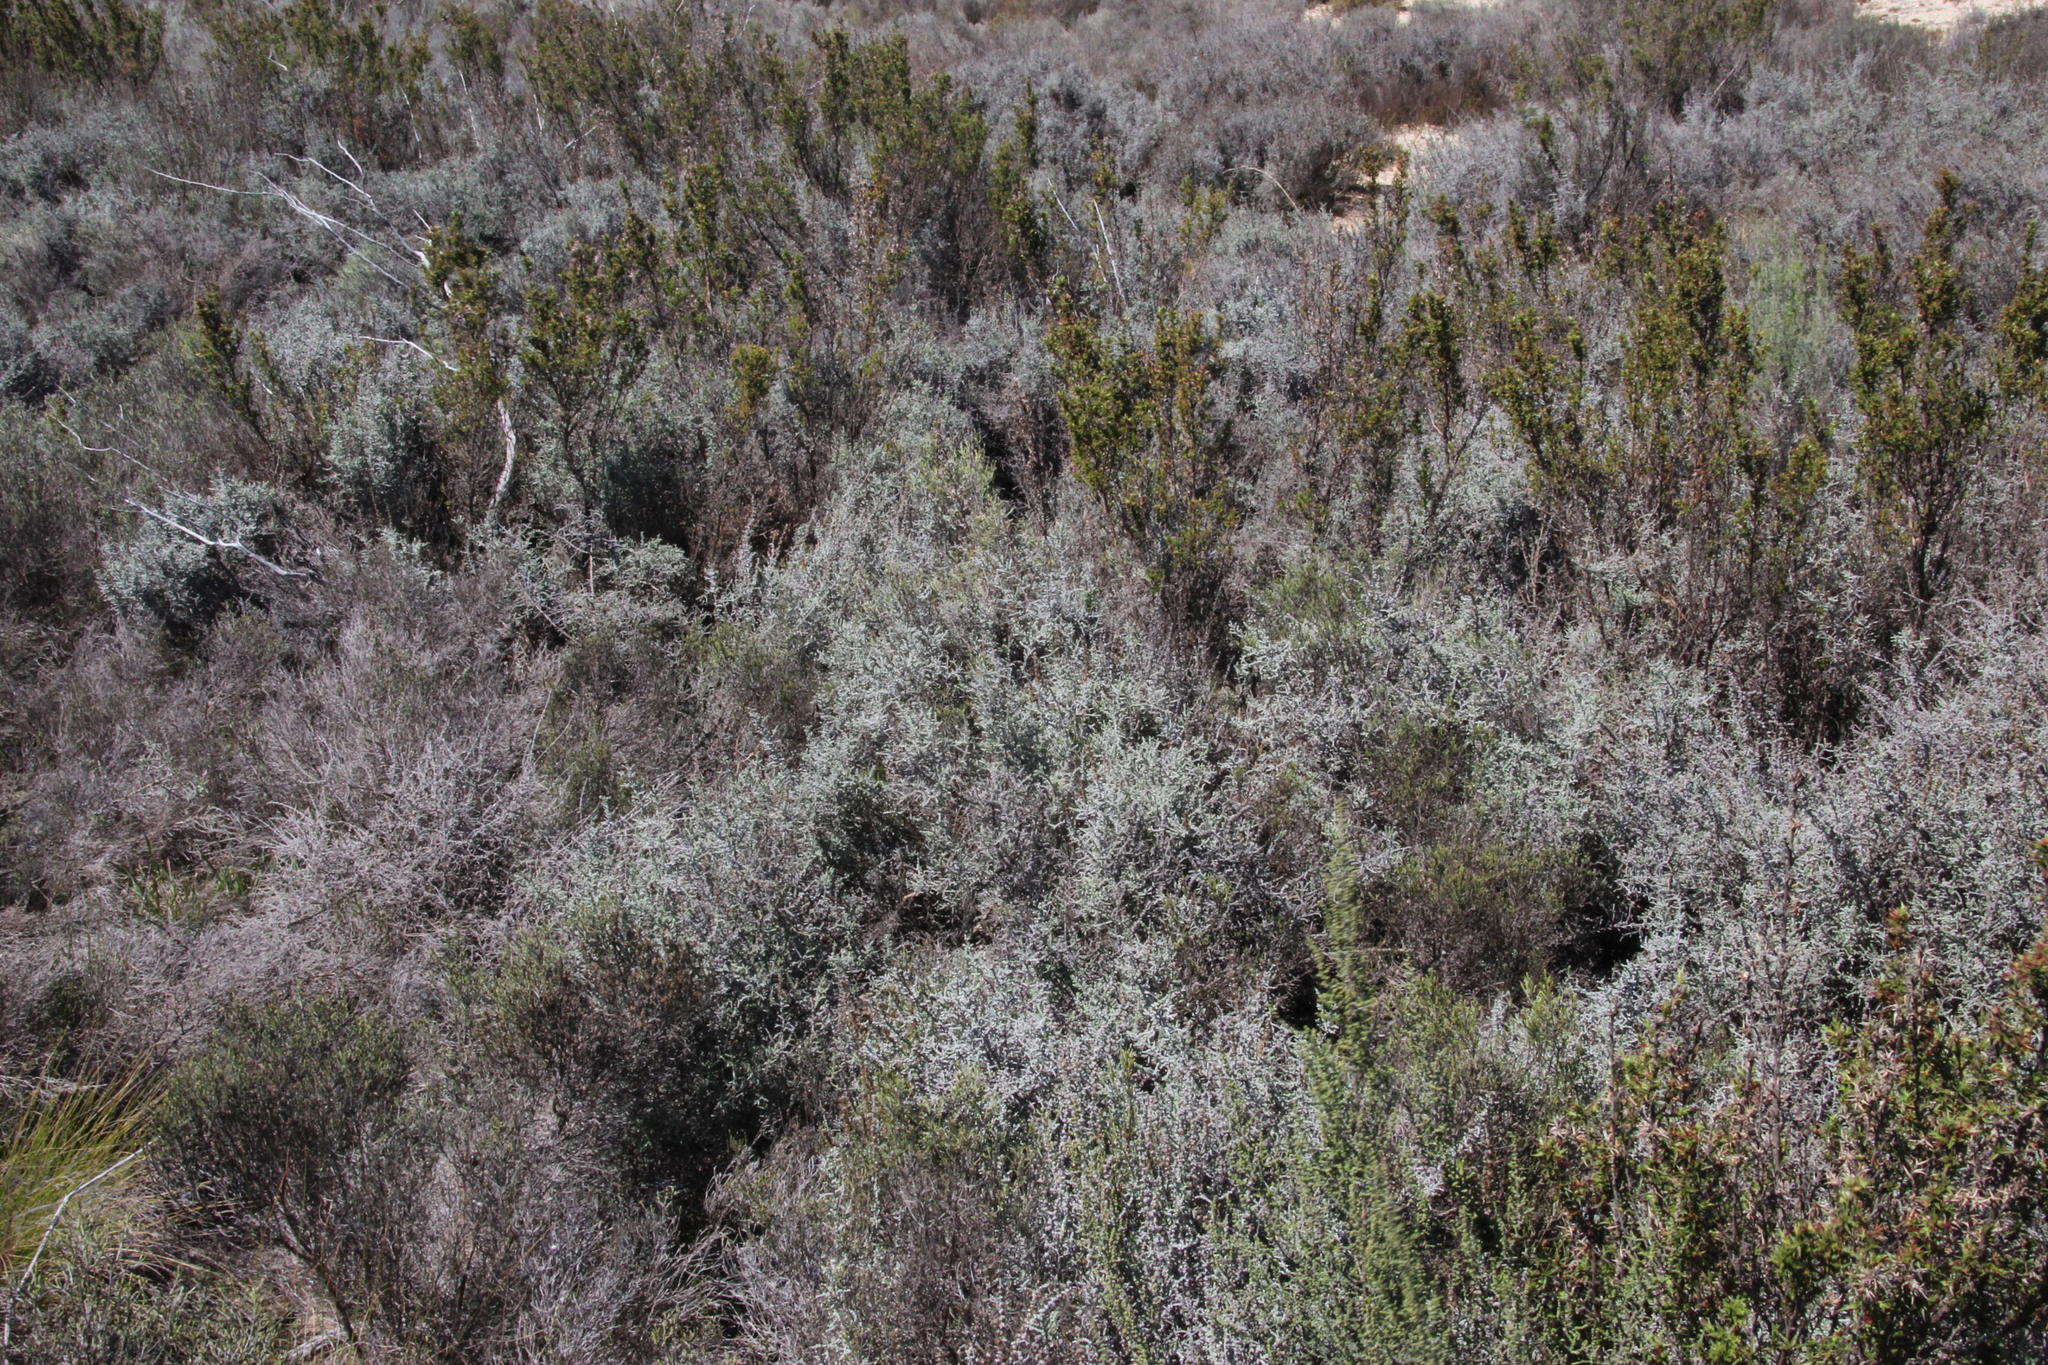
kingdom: Plantae
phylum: Tracheophyta
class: Magnoliopsida
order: Asterales
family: Asteraceae
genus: Seriphium
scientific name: Seriphium plumosum
